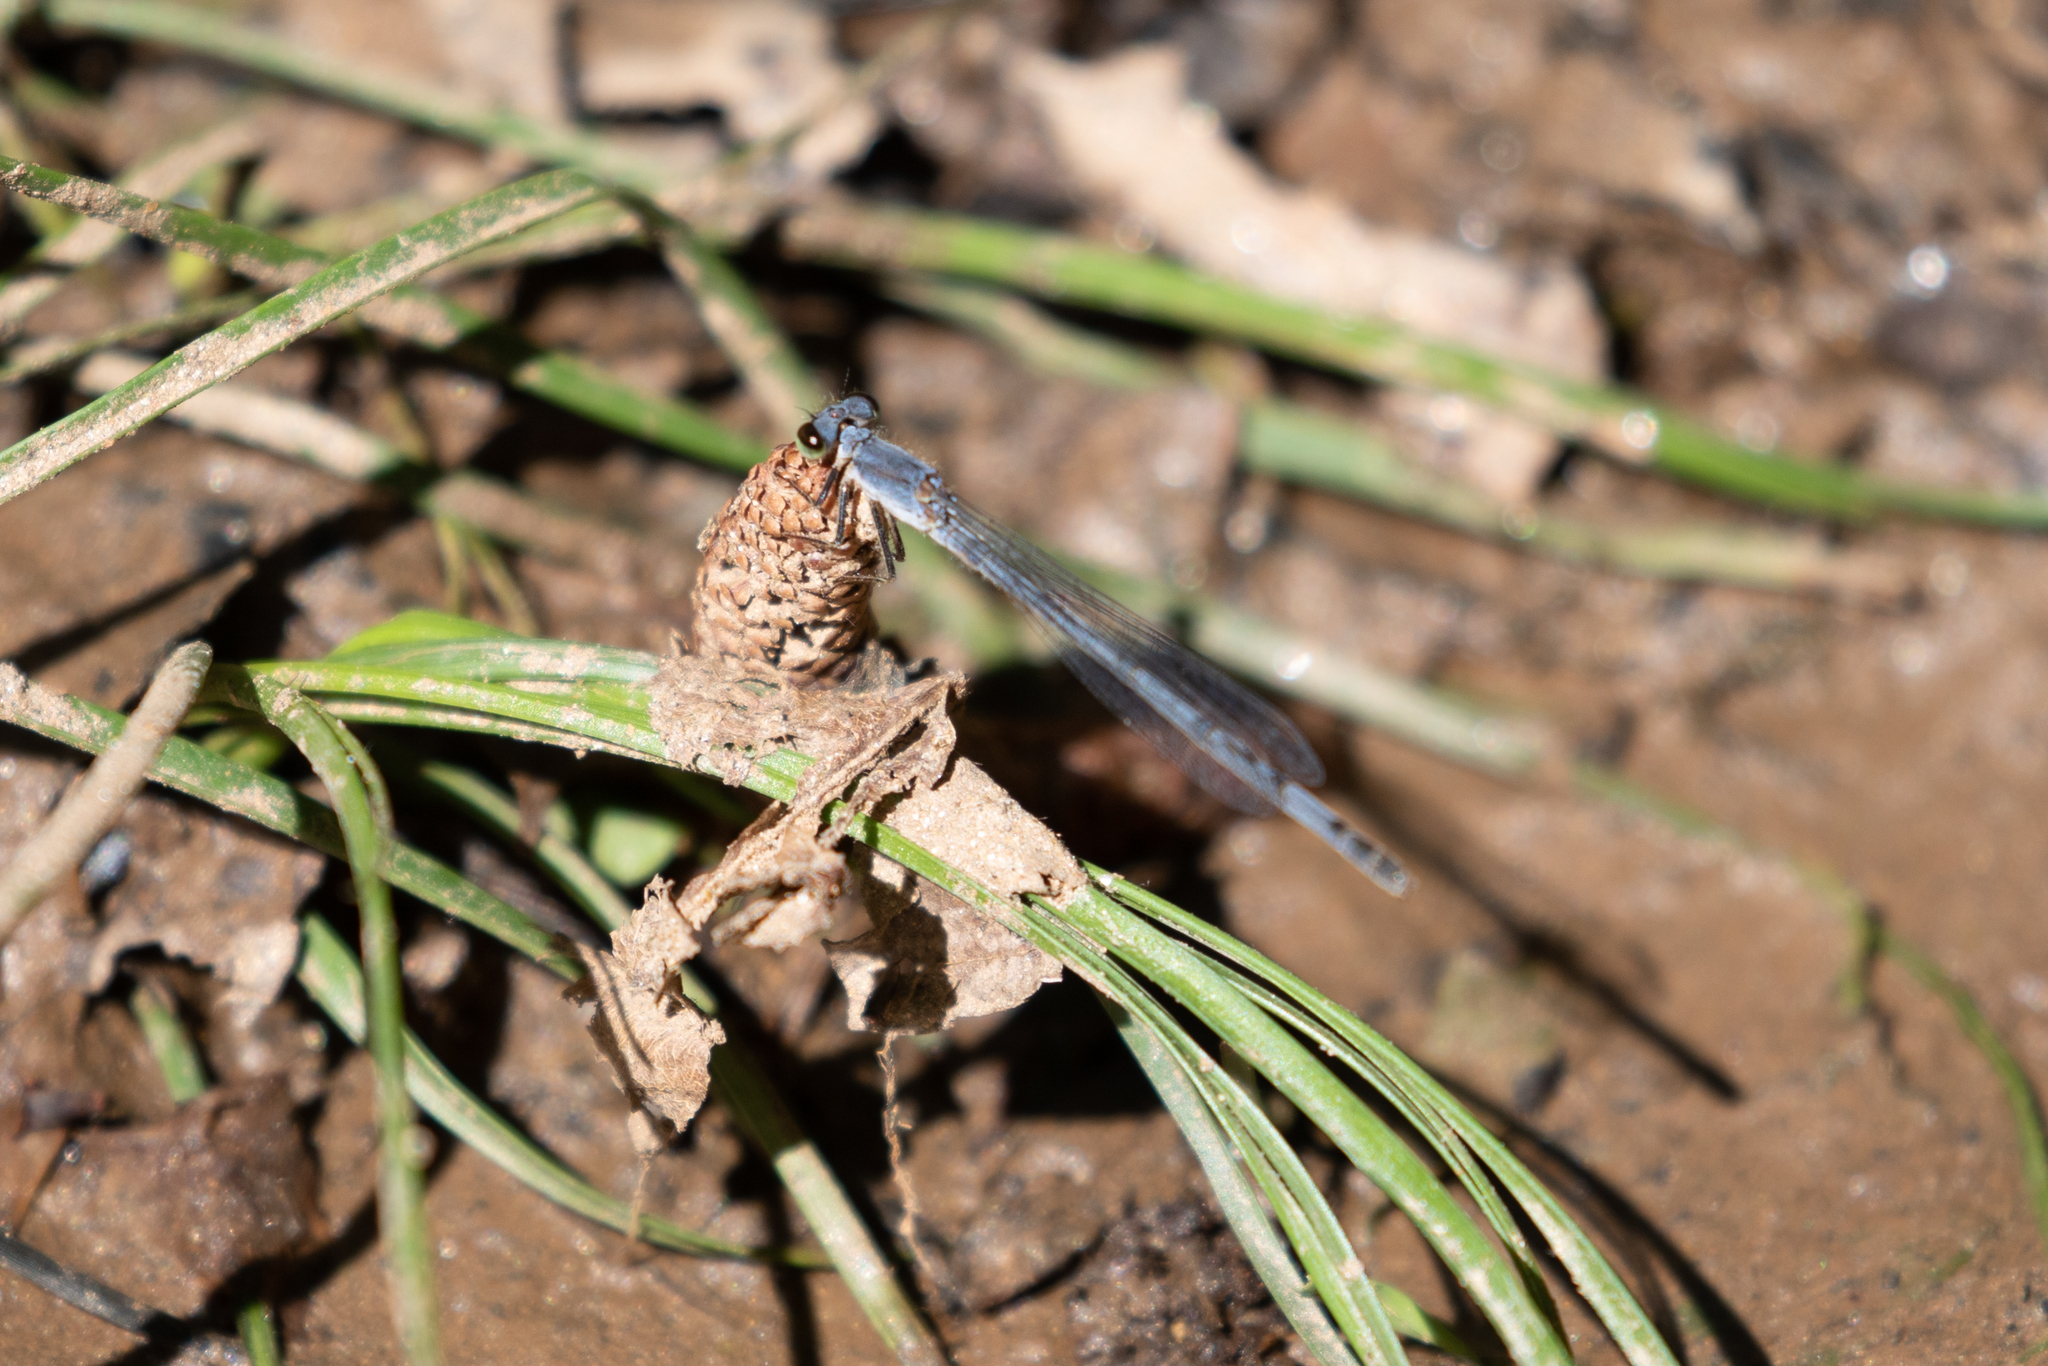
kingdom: Animalia
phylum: Arthropoda
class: Insecta
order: Odonata
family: Coenagrionidae
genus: Ischnura
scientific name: Ischnura posita
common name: Fragile forktail
